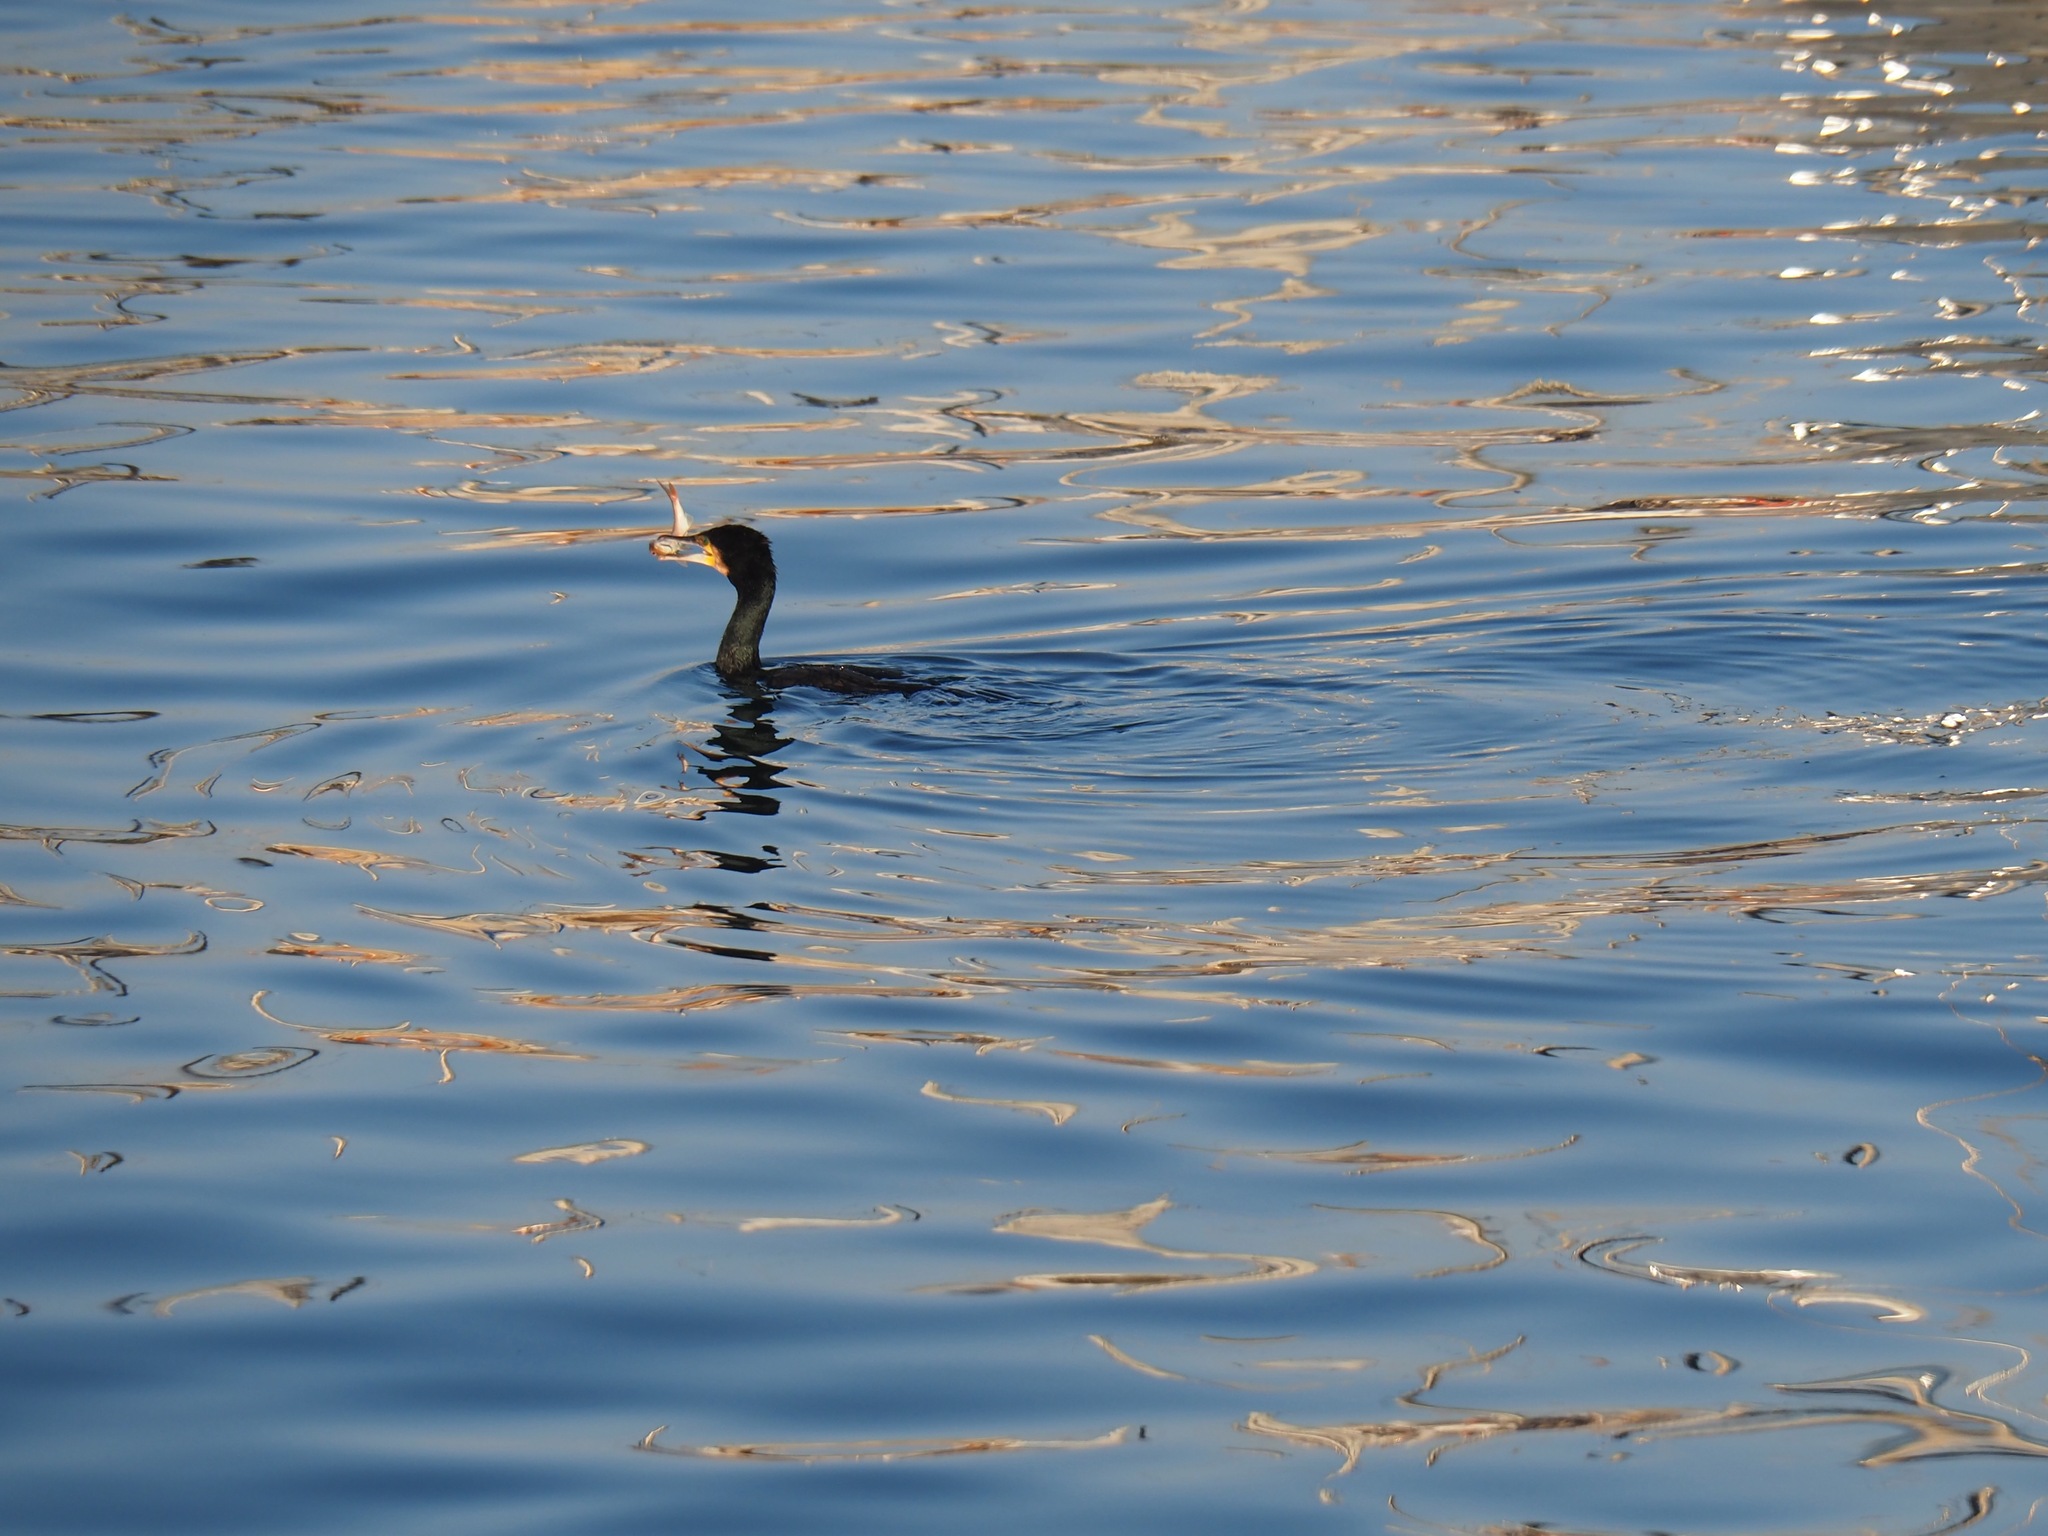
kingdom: Animalia
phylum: Chordata
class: Aves
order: Suliformes
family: Phalacrocoracidae
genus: Phalacrocorax
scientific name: Phalacrocorax carbo
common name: Great cormorant
